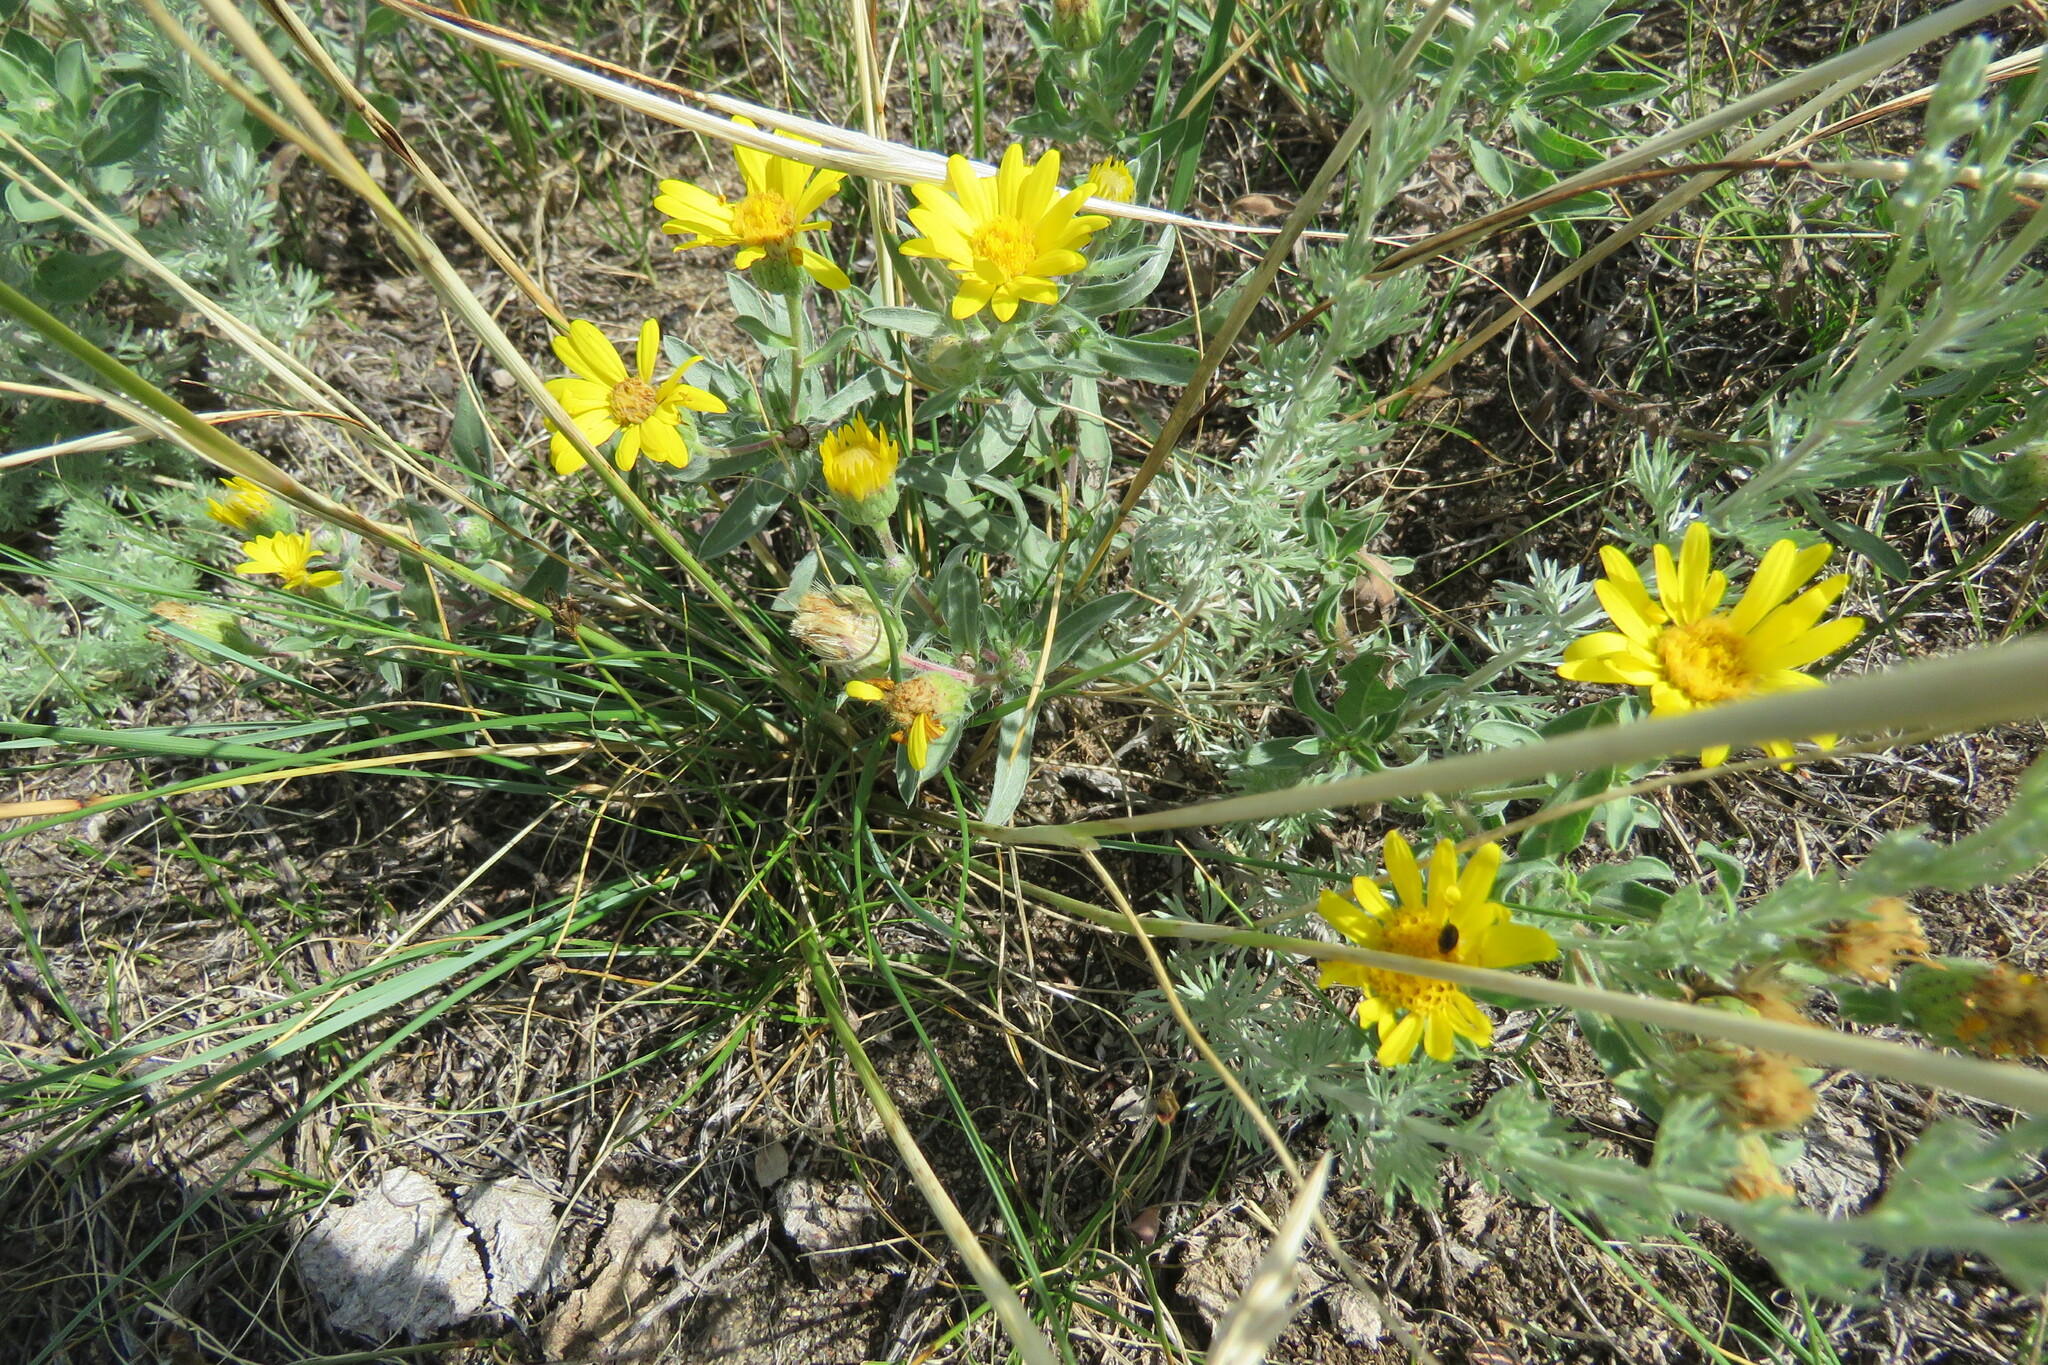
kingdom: Plantae
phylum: Tracheophyta
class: Magnoliopsida
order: Asterales
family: Asteraceae
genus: Heterotheca
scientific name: Heterotheca villosa
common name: Hairy false goldenaster
